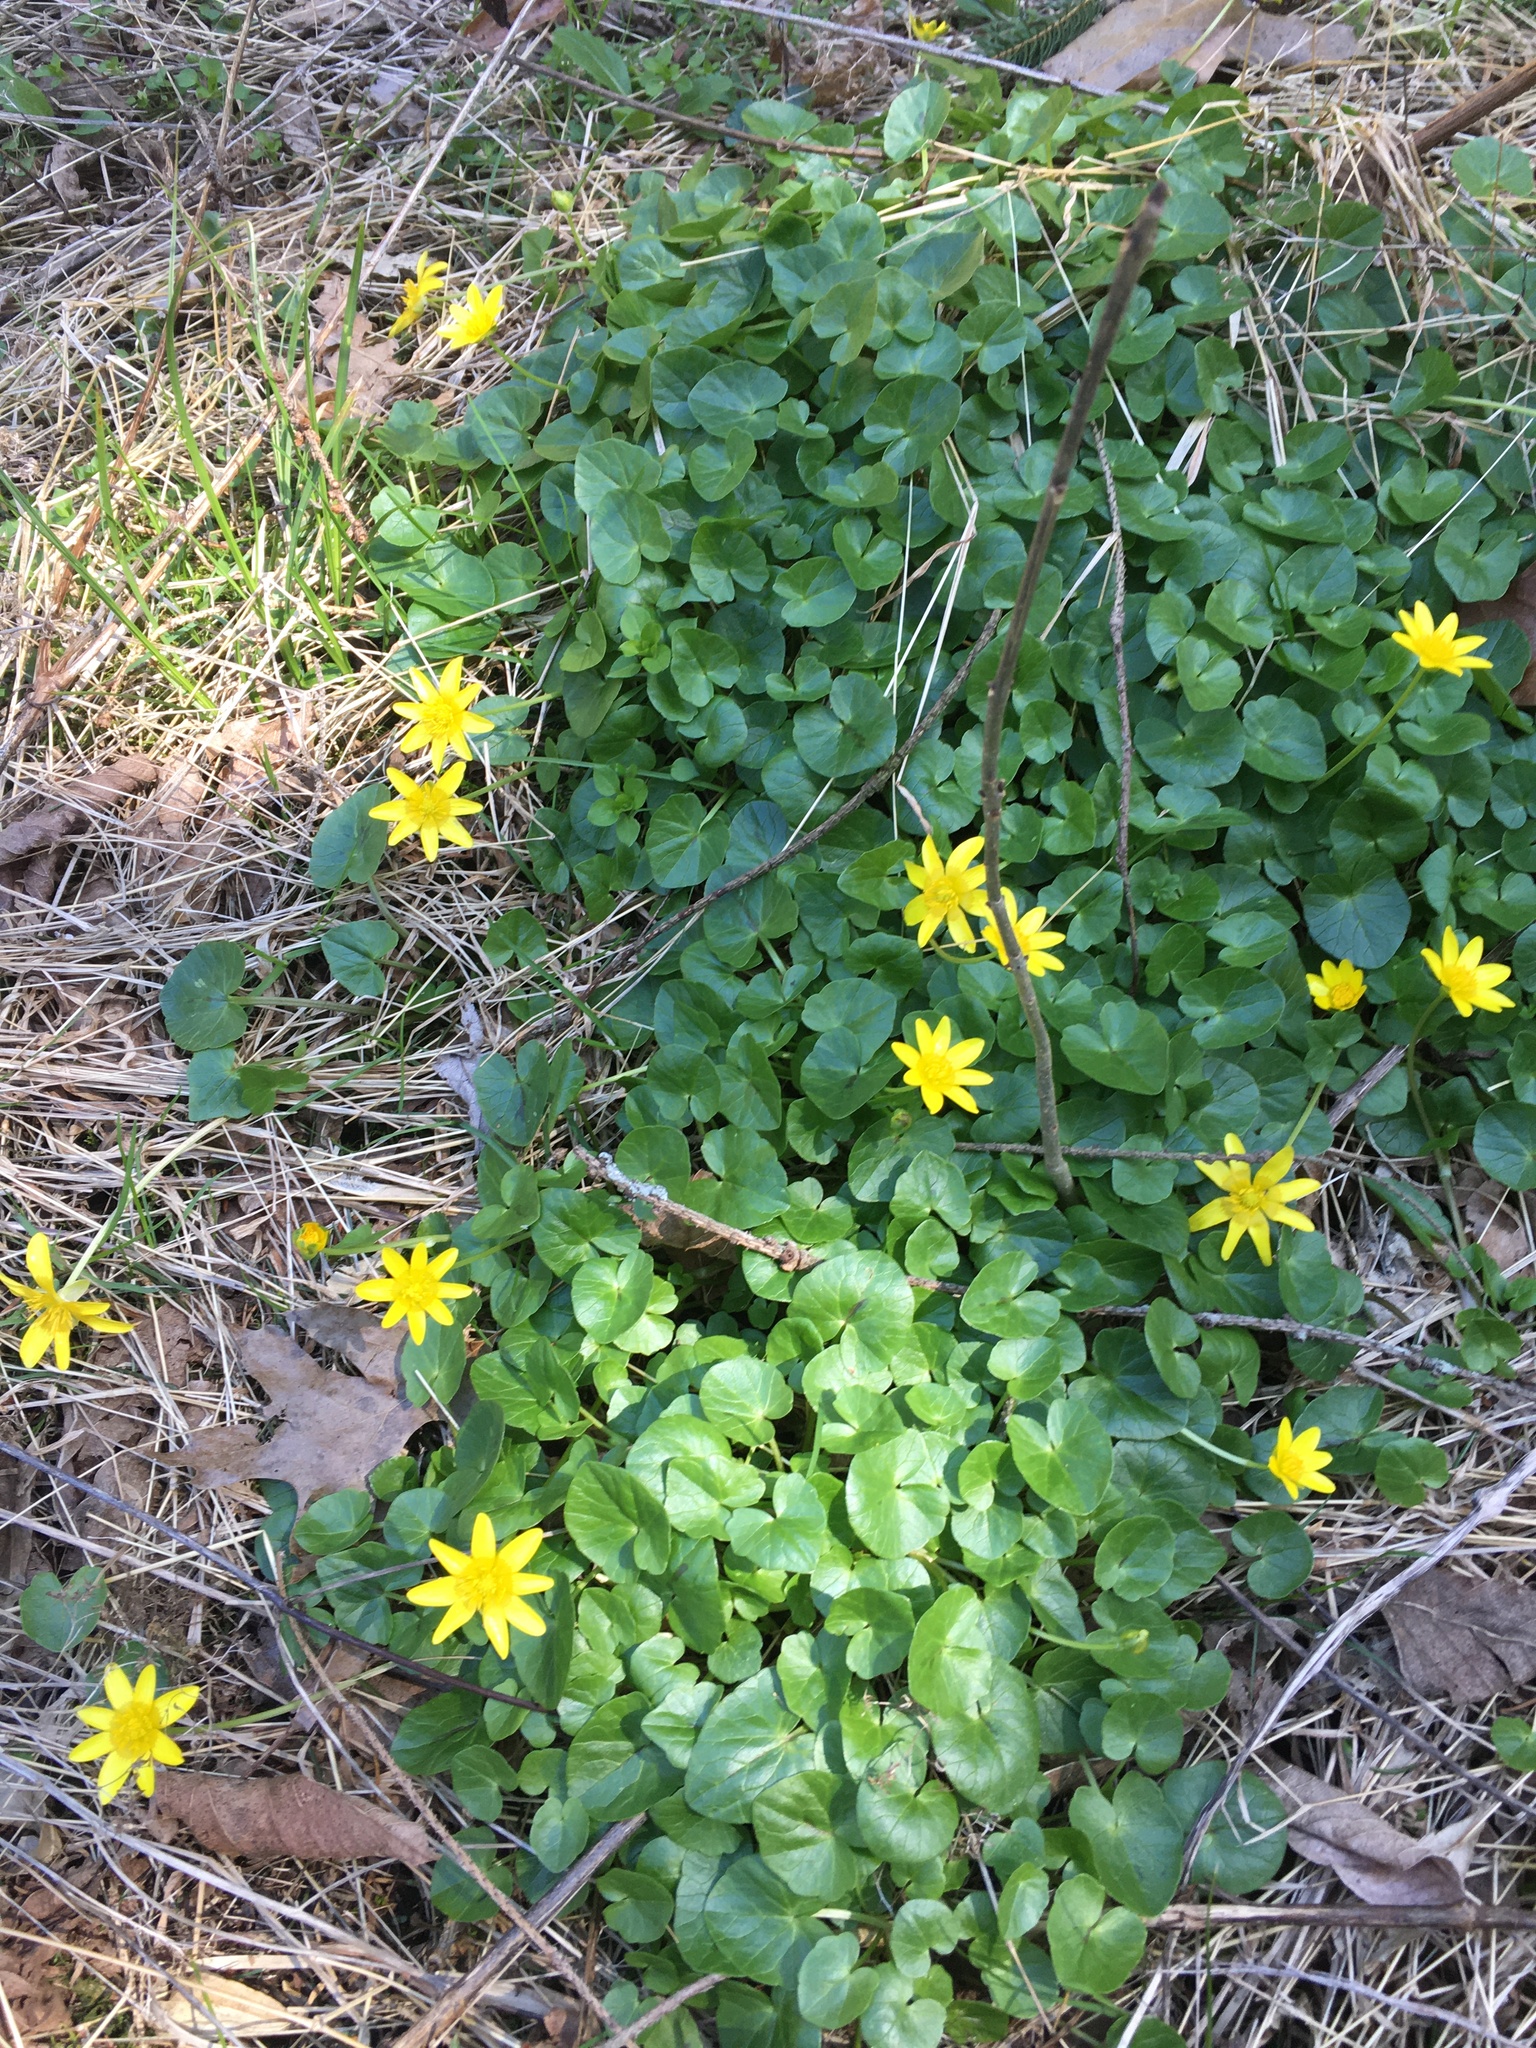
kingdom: Plantae
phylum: Tracheophyta
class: Magnoliopsida
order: Ranunculales
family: Ranunculaceae
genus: Ficaria
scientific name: Ficaria verna
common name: Lesser celandine
